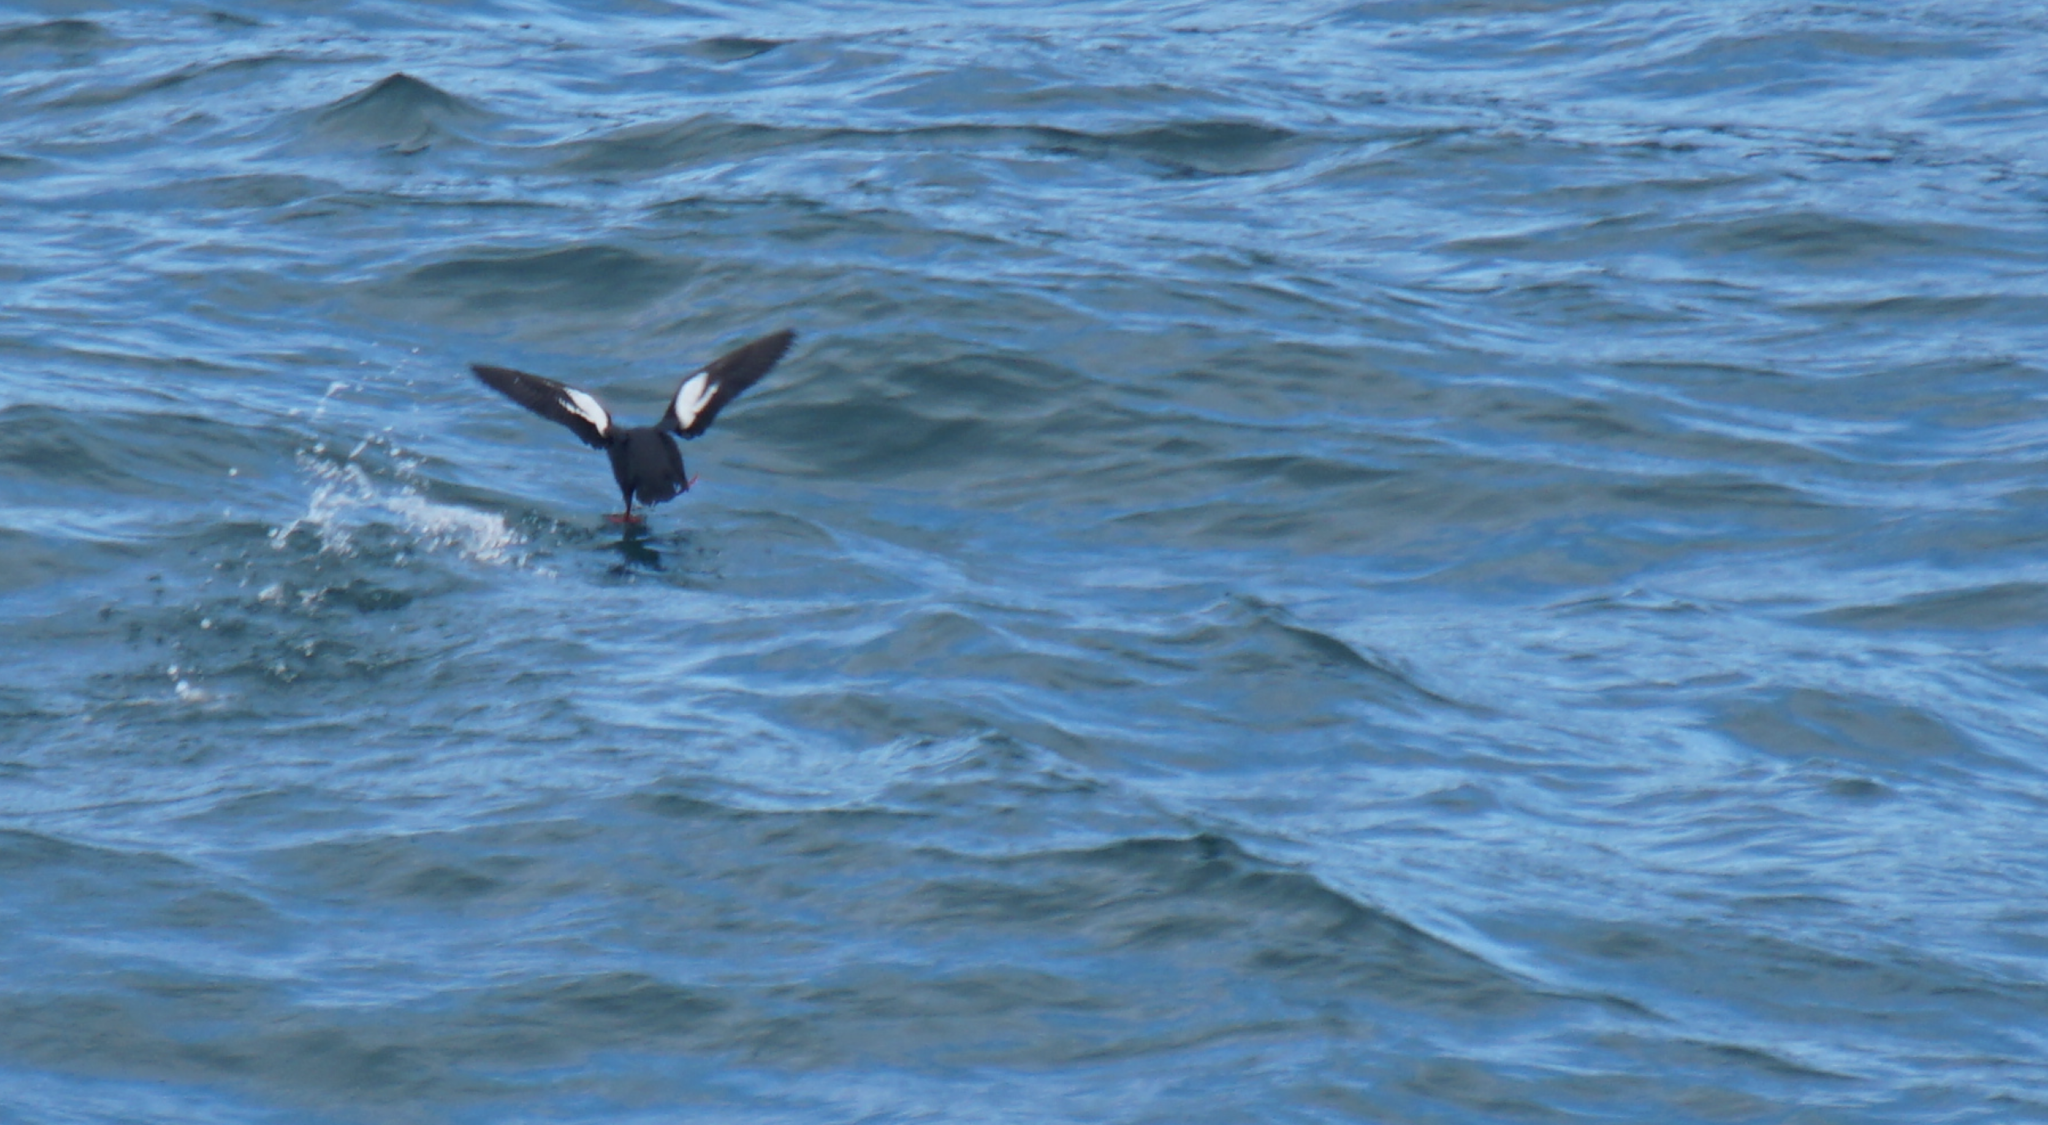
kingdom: Animalia
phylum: Chordata
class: Aves
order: Charadriiformes
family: Alcidae
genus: Cepphus
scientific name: Cepphus columba
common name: Pigeon guillemot
